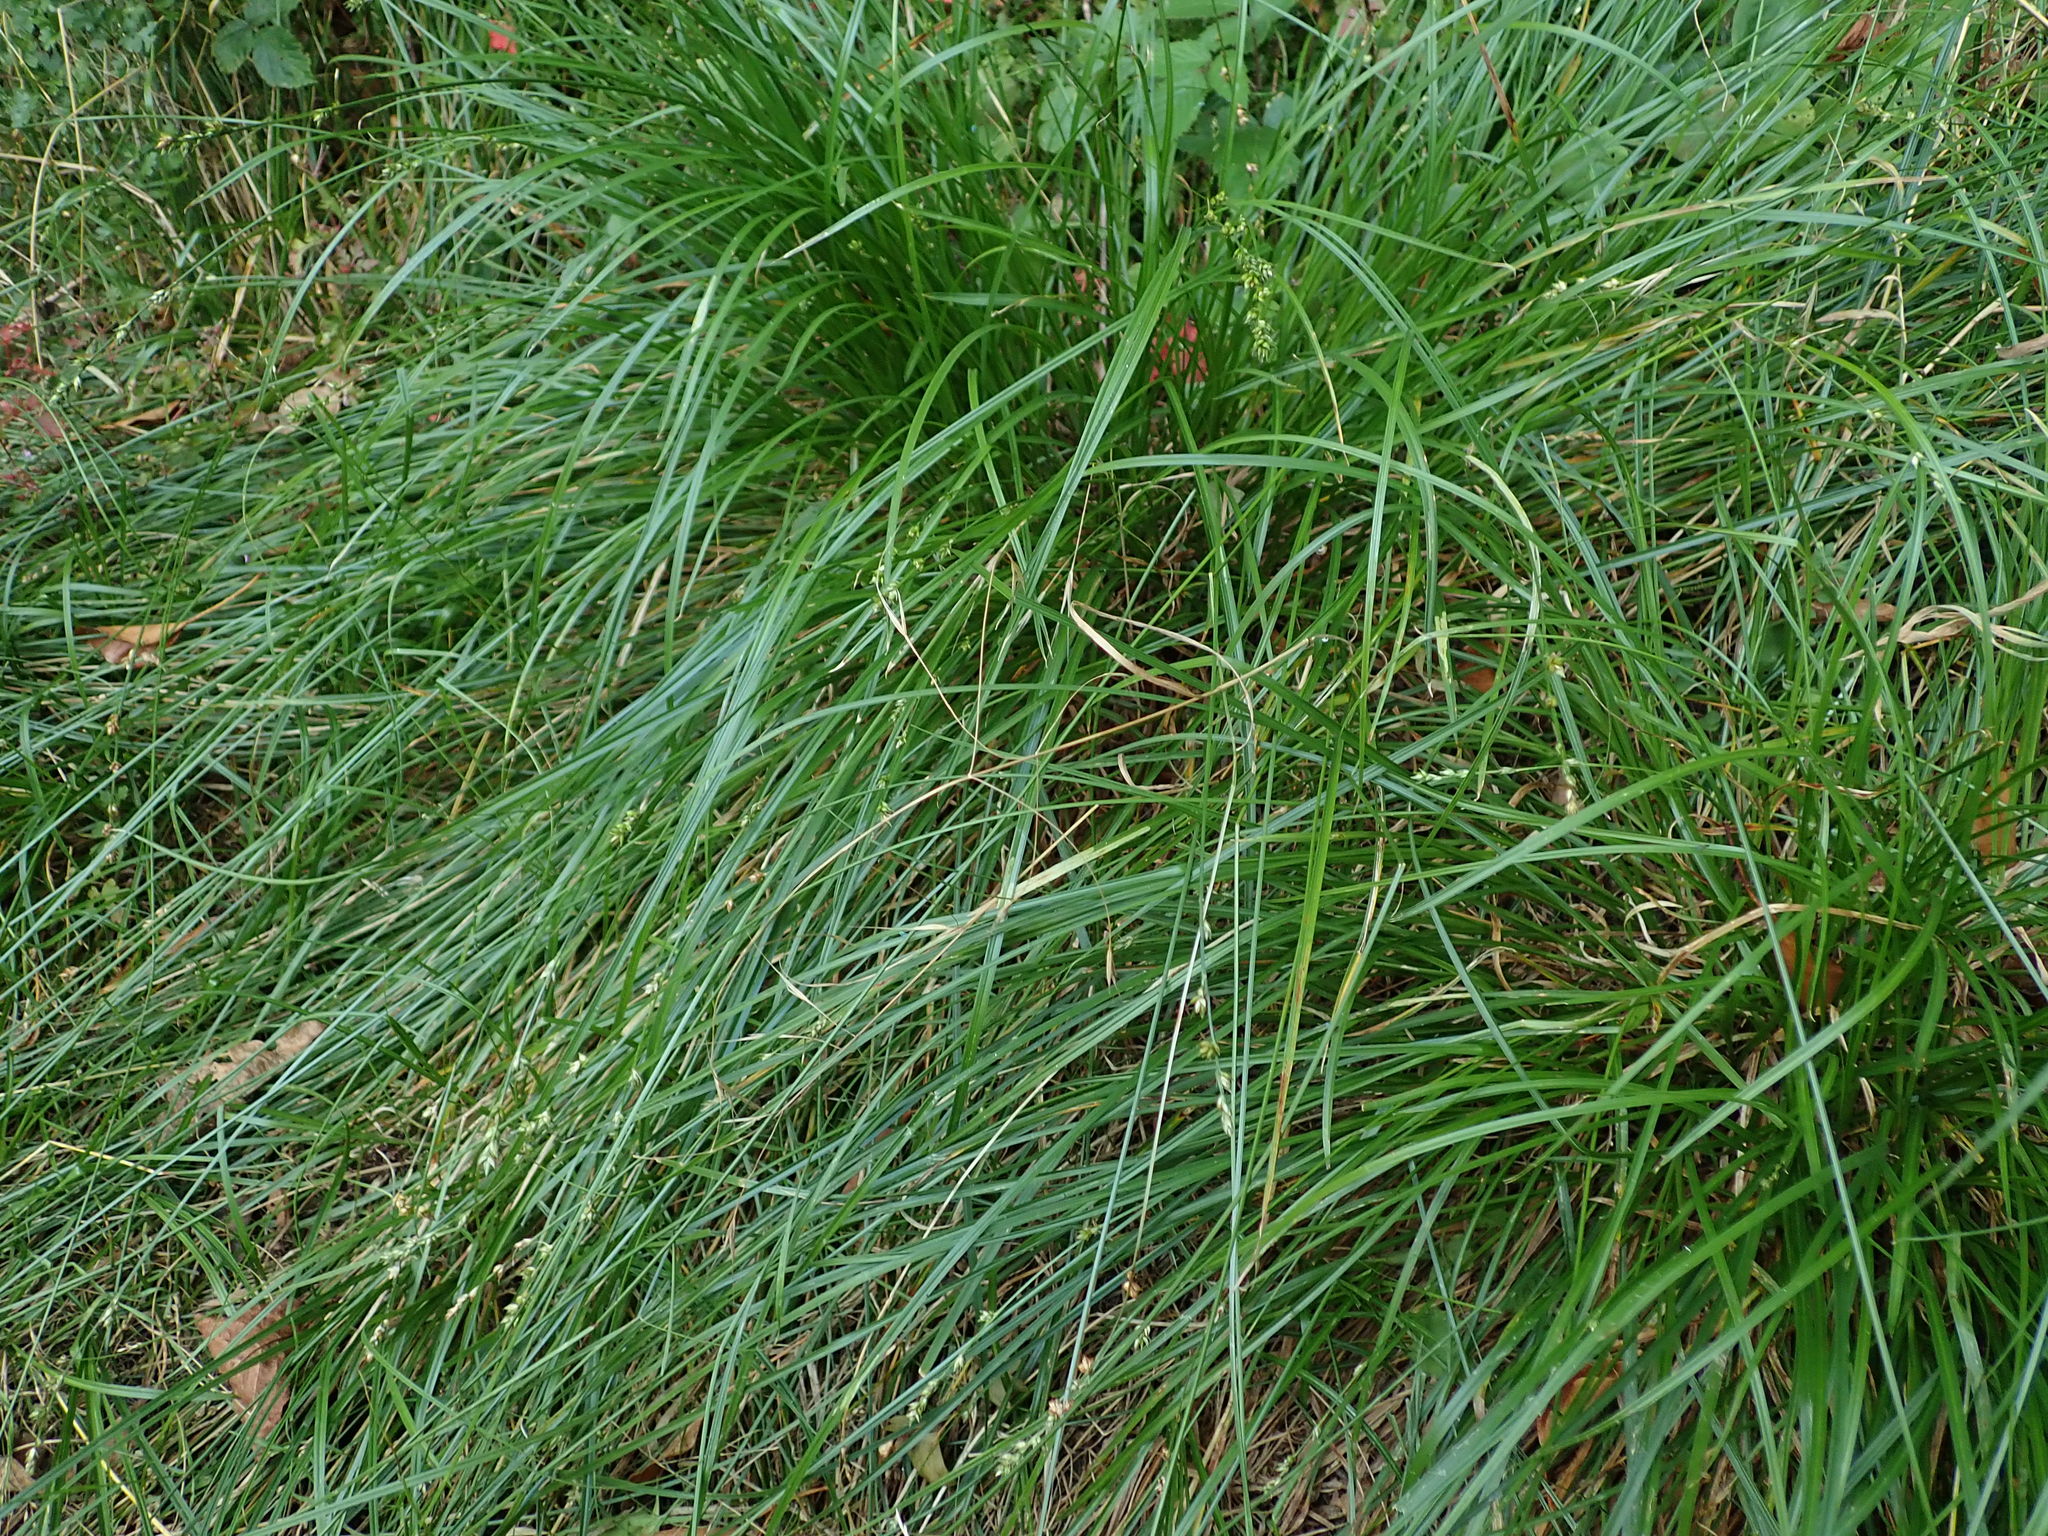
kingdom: Plantae
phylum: Tracheophyta
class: Liliopsida
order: Poales
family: Cyperaceae
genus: Carex
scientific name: Carex divulsa
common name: Grassland sedge
